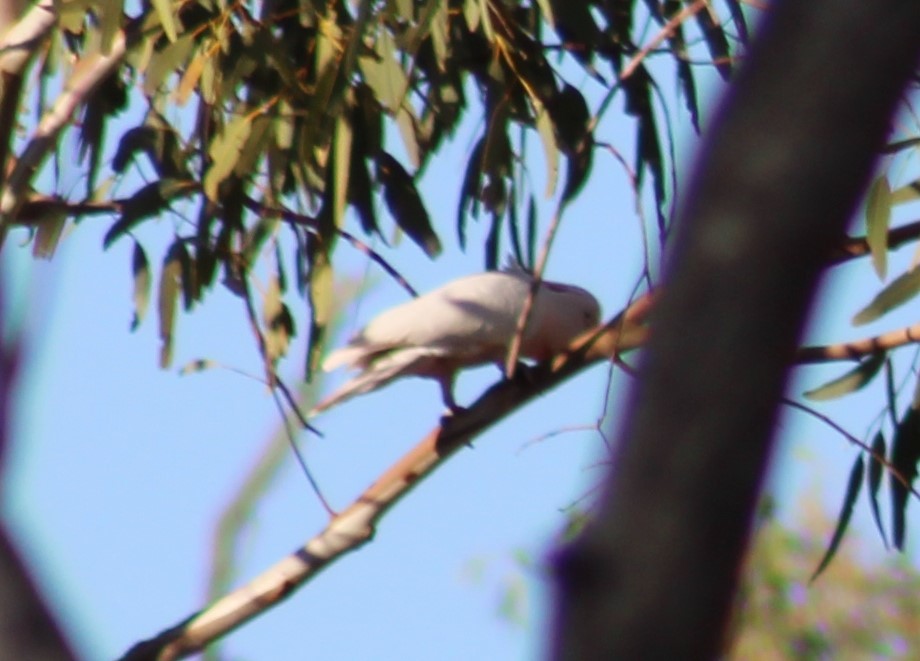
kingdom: Animalia
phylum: Chordata
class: Aves
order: Psittaciformes
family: Psittacidae
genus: Cacatua
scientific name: Cacatua leadbeateri
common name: Major mitchell's cockatoo
